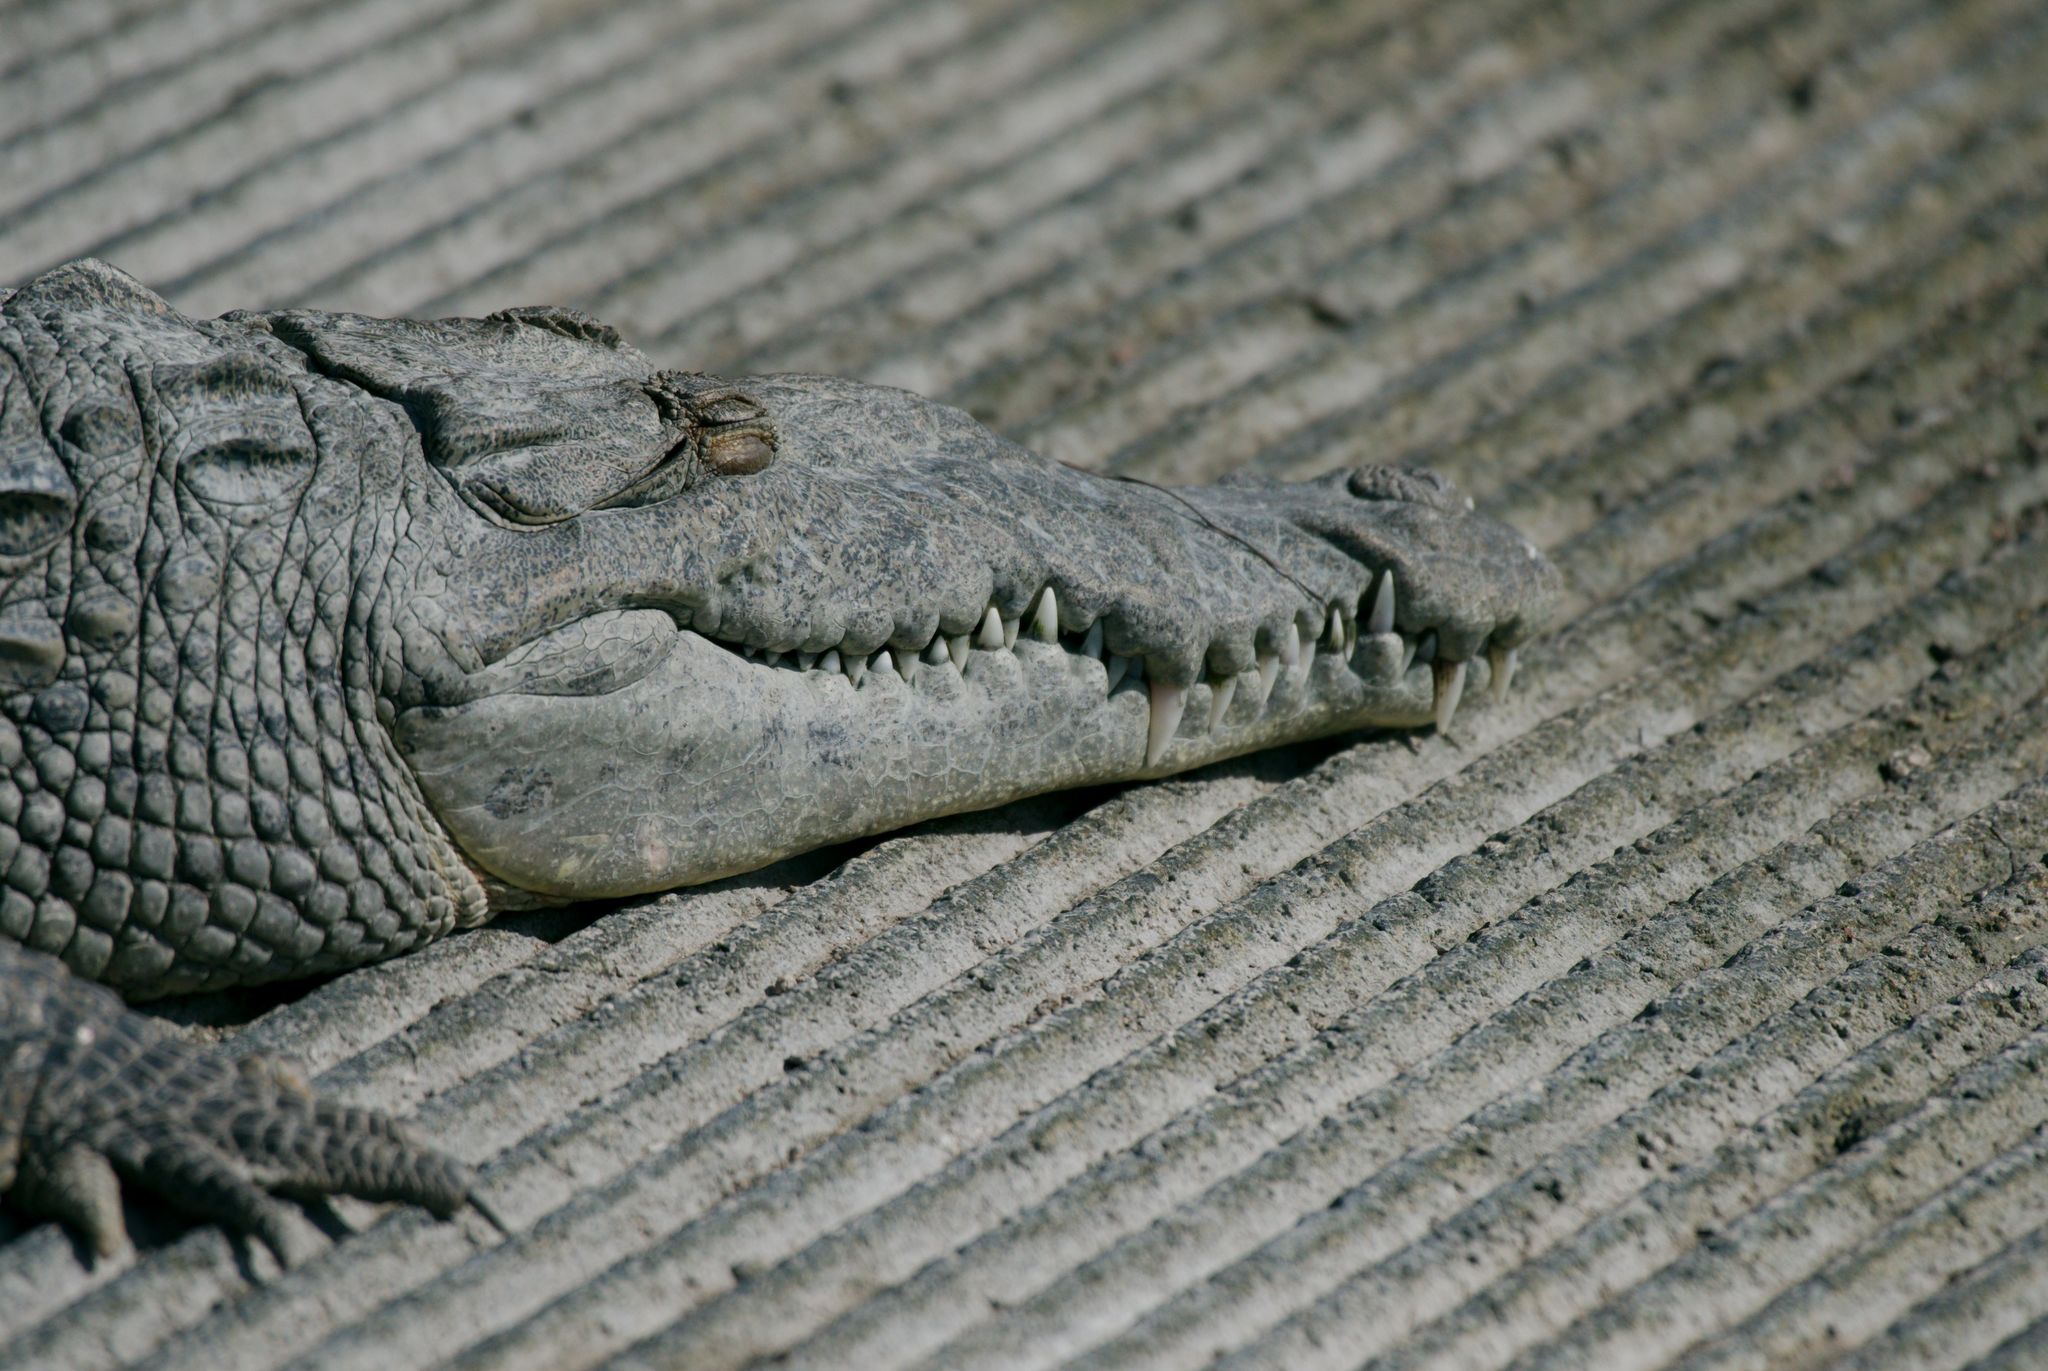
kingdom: Animalia
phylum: Chordata
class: Crocodylia
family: Crocodylidae
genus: Crocodylus
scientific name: Crocodylus acutus
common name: American crocodile
